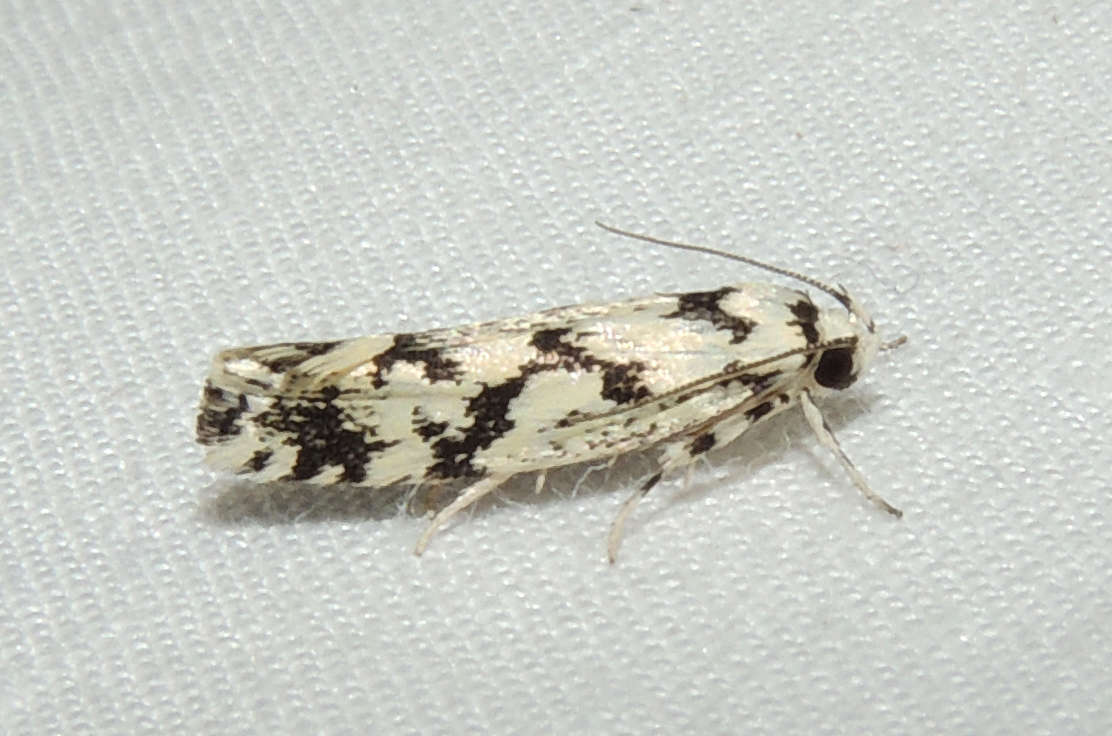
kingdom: Animalia
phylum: Arthropoda
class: Insecta
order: Lepidoptera
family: Xyloryctidae
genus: Lichenaula
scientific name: Lichenaula calligrapha
